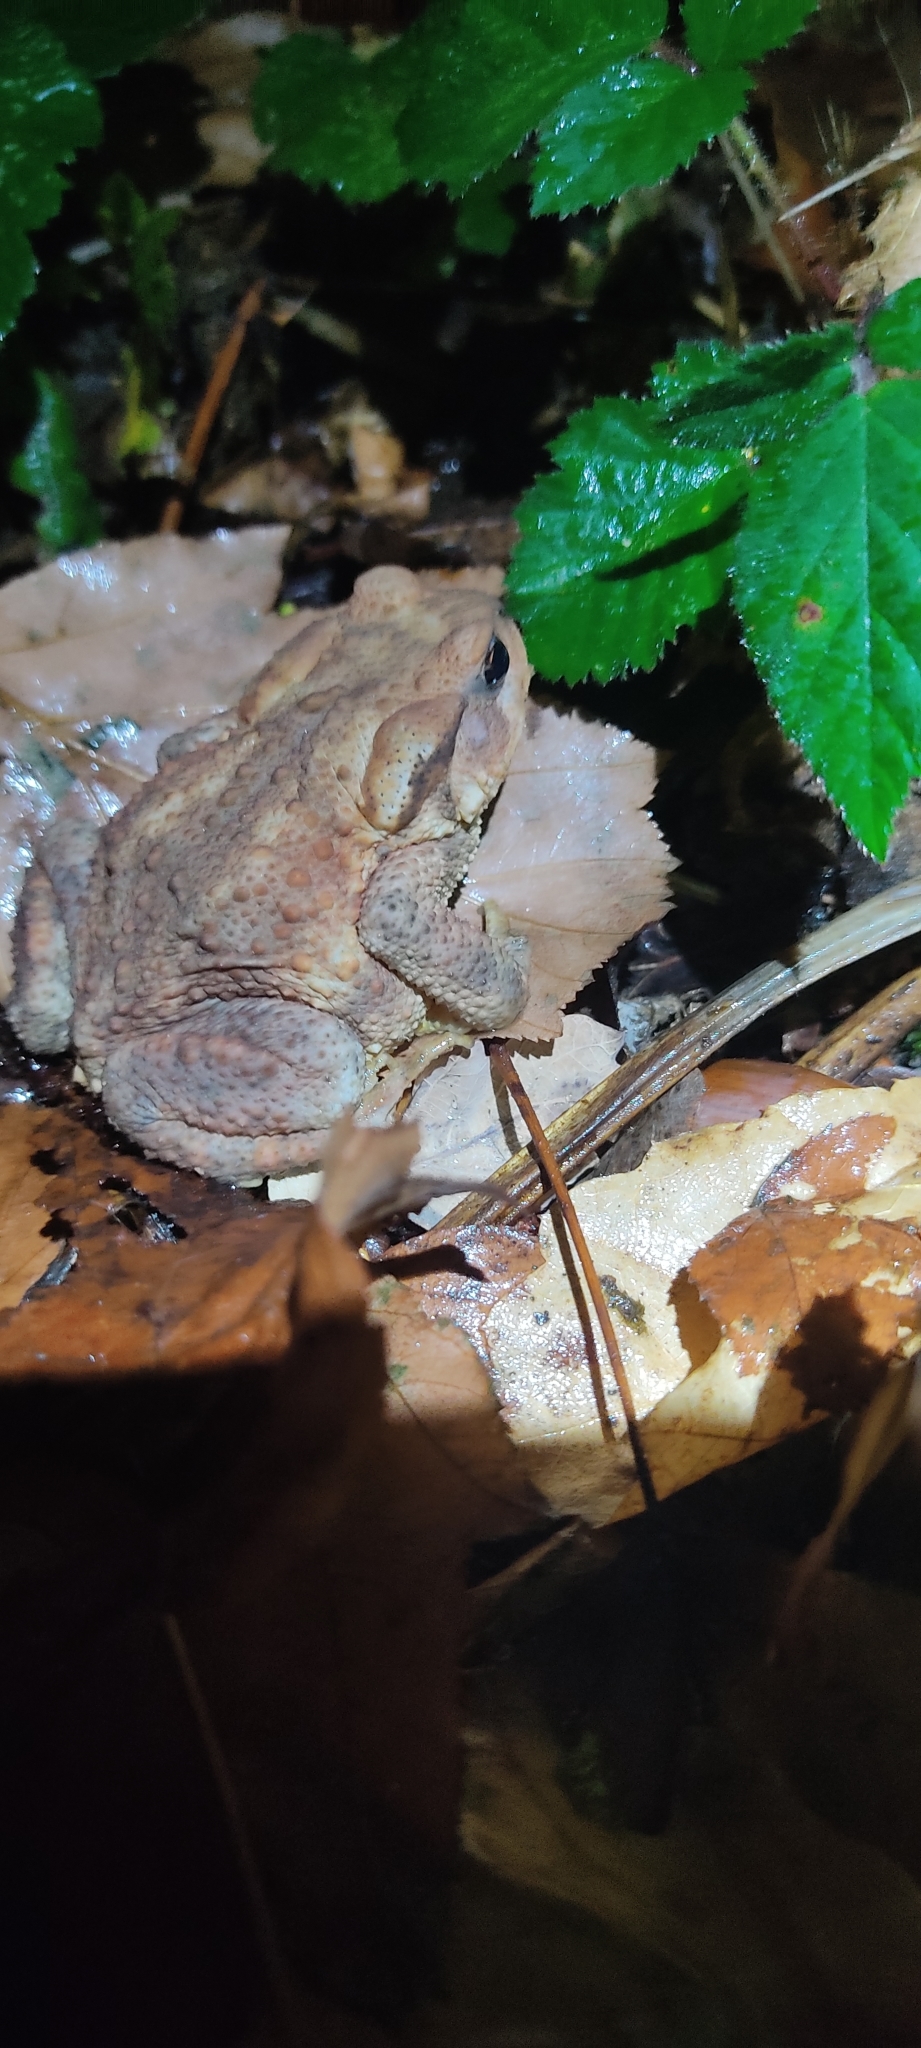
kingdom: Animalia
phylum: Chordata
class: Amphibia
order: Anura
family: Bufonidae
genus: Bufo
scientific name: Bufo spinosus
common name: Western common toad
